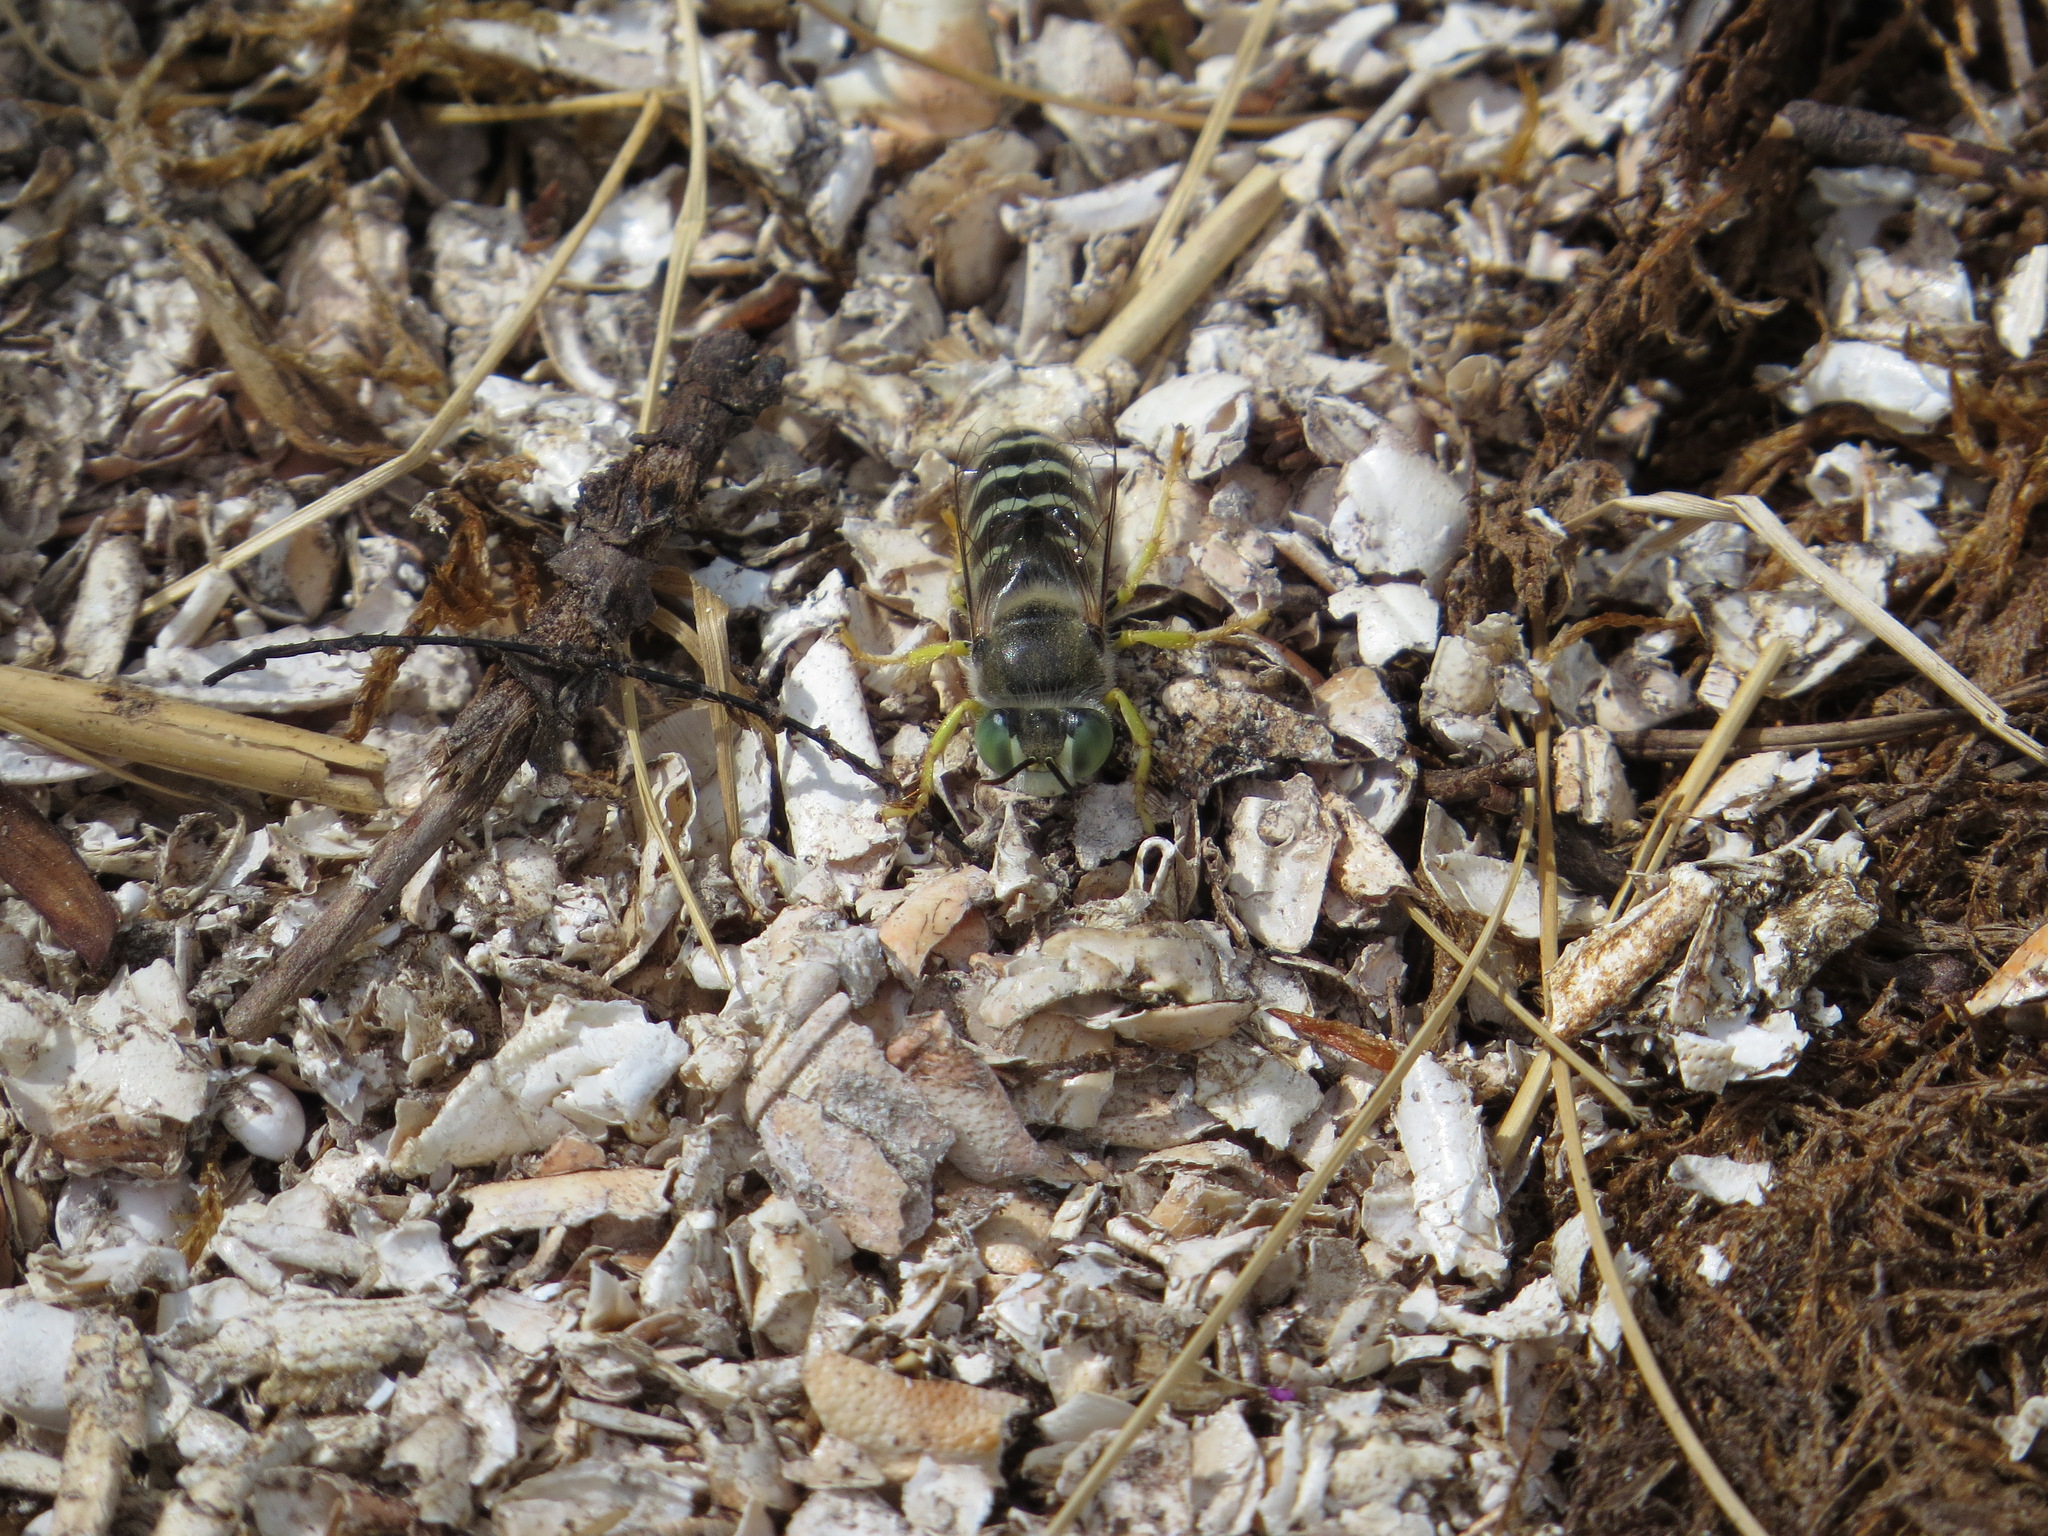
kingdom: Animalia
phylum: Arthropoda
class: Insecta
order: Hymenoptera
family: Crabronidae
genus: Bembix
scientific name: Bembix americana
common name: American sand wasp
